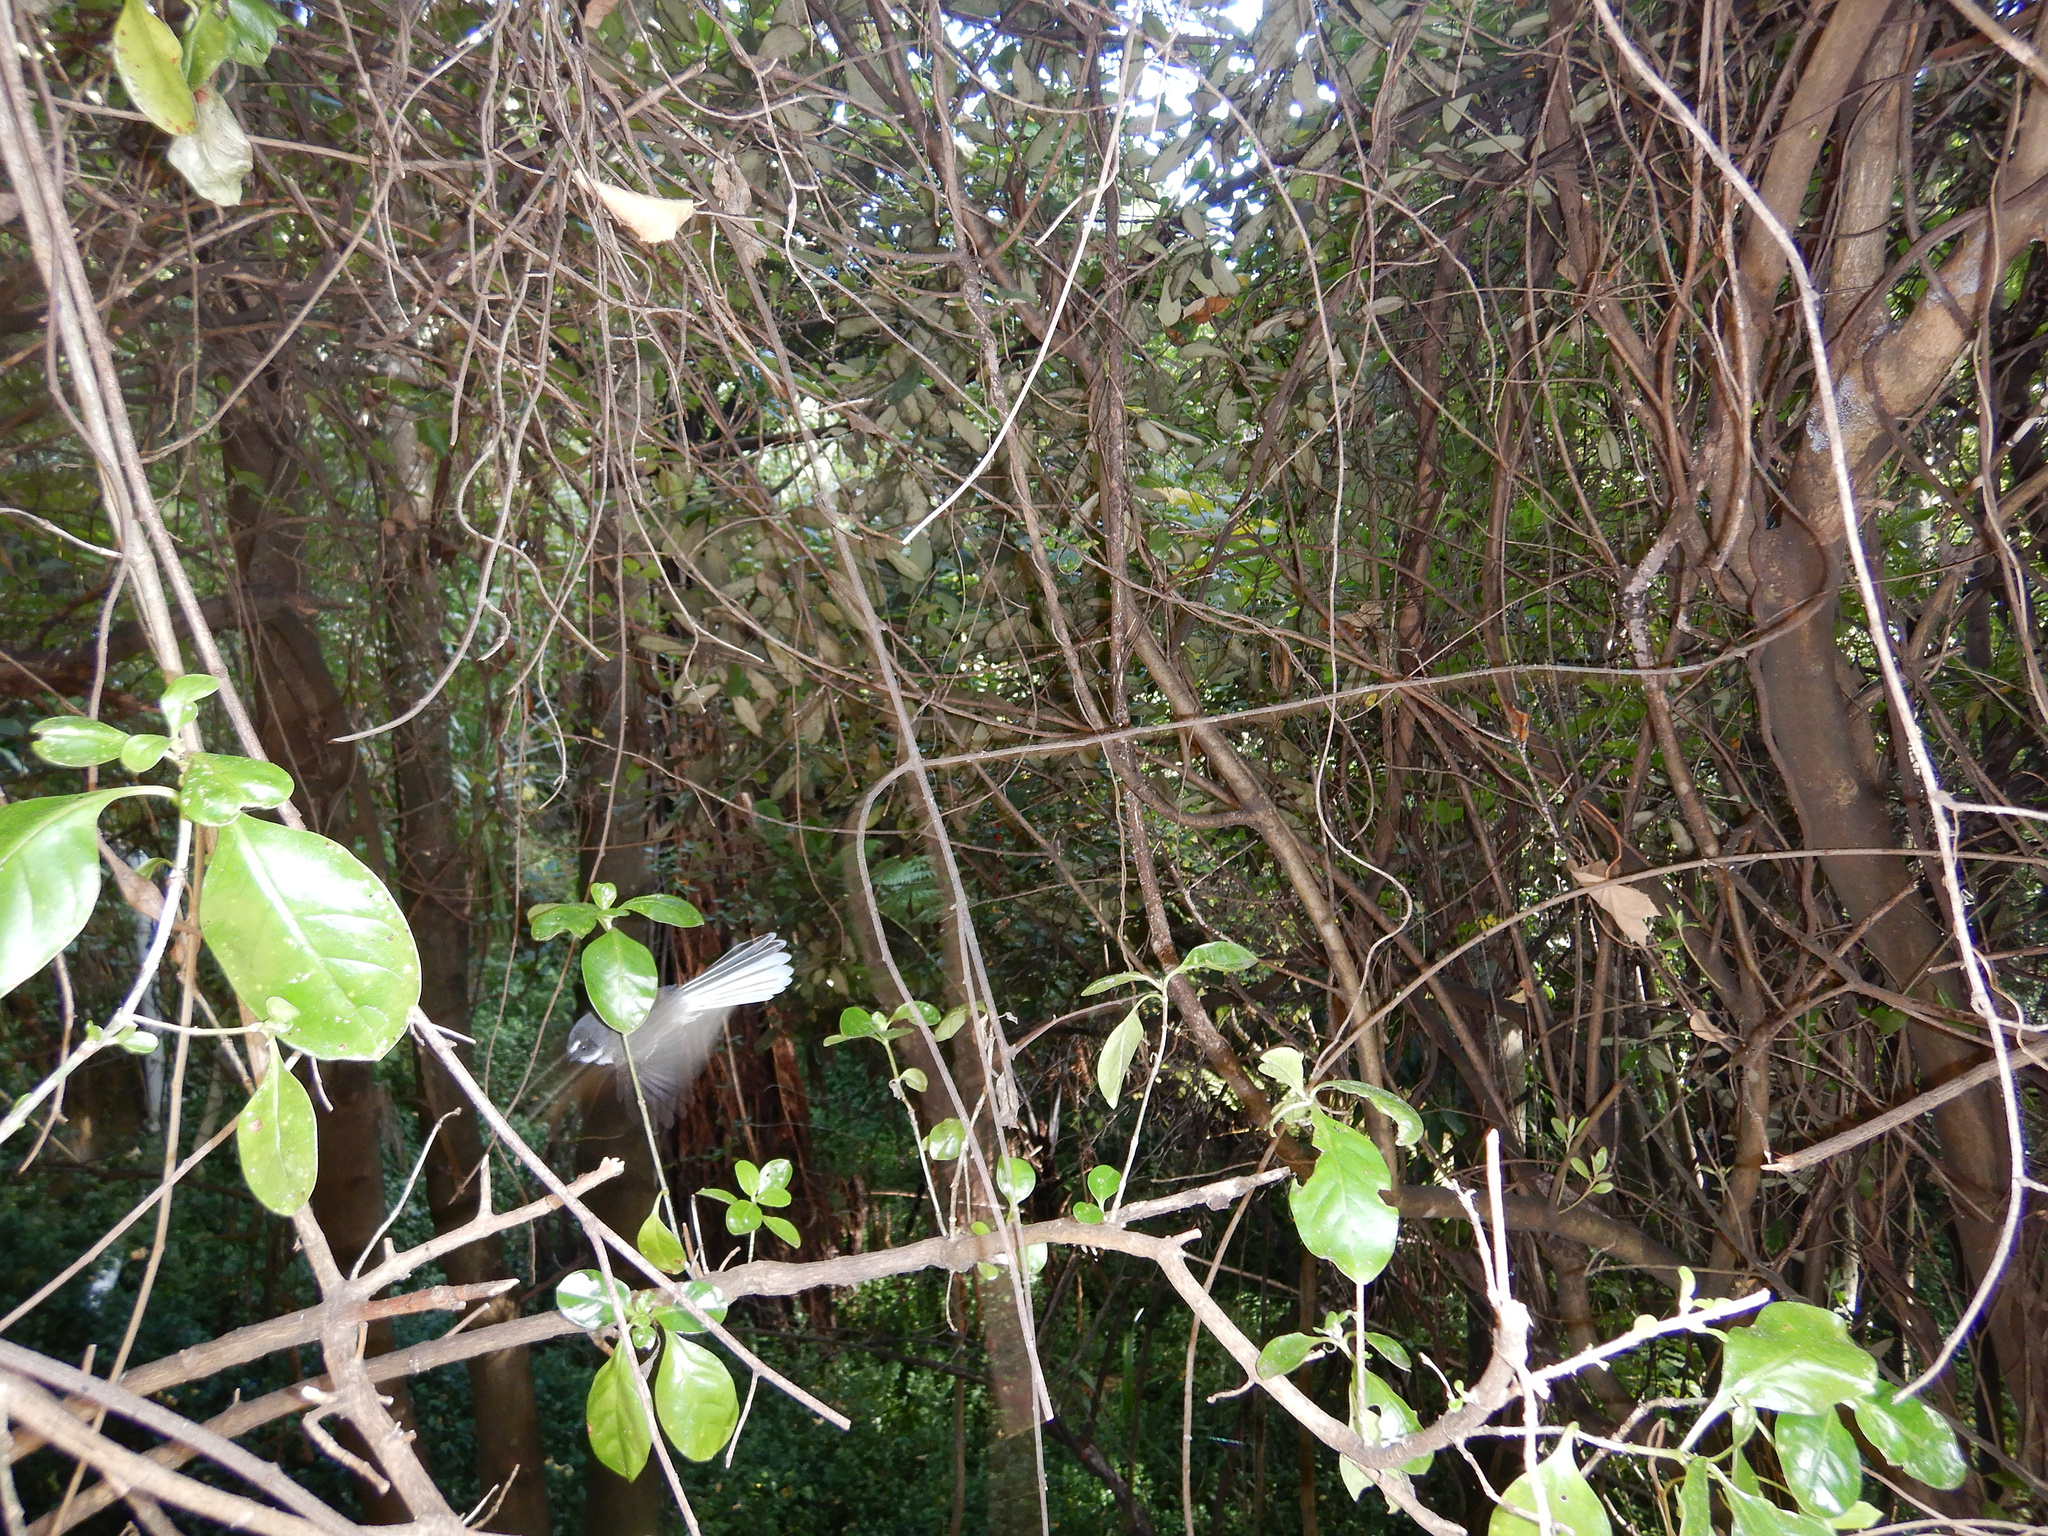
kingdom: Animalia
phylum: Chordata
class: Aves
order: Passeriformes
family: Rhipiduridae
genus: Rhipidura
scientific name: Rhipidura fuliginosa
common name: New zealand fantail
